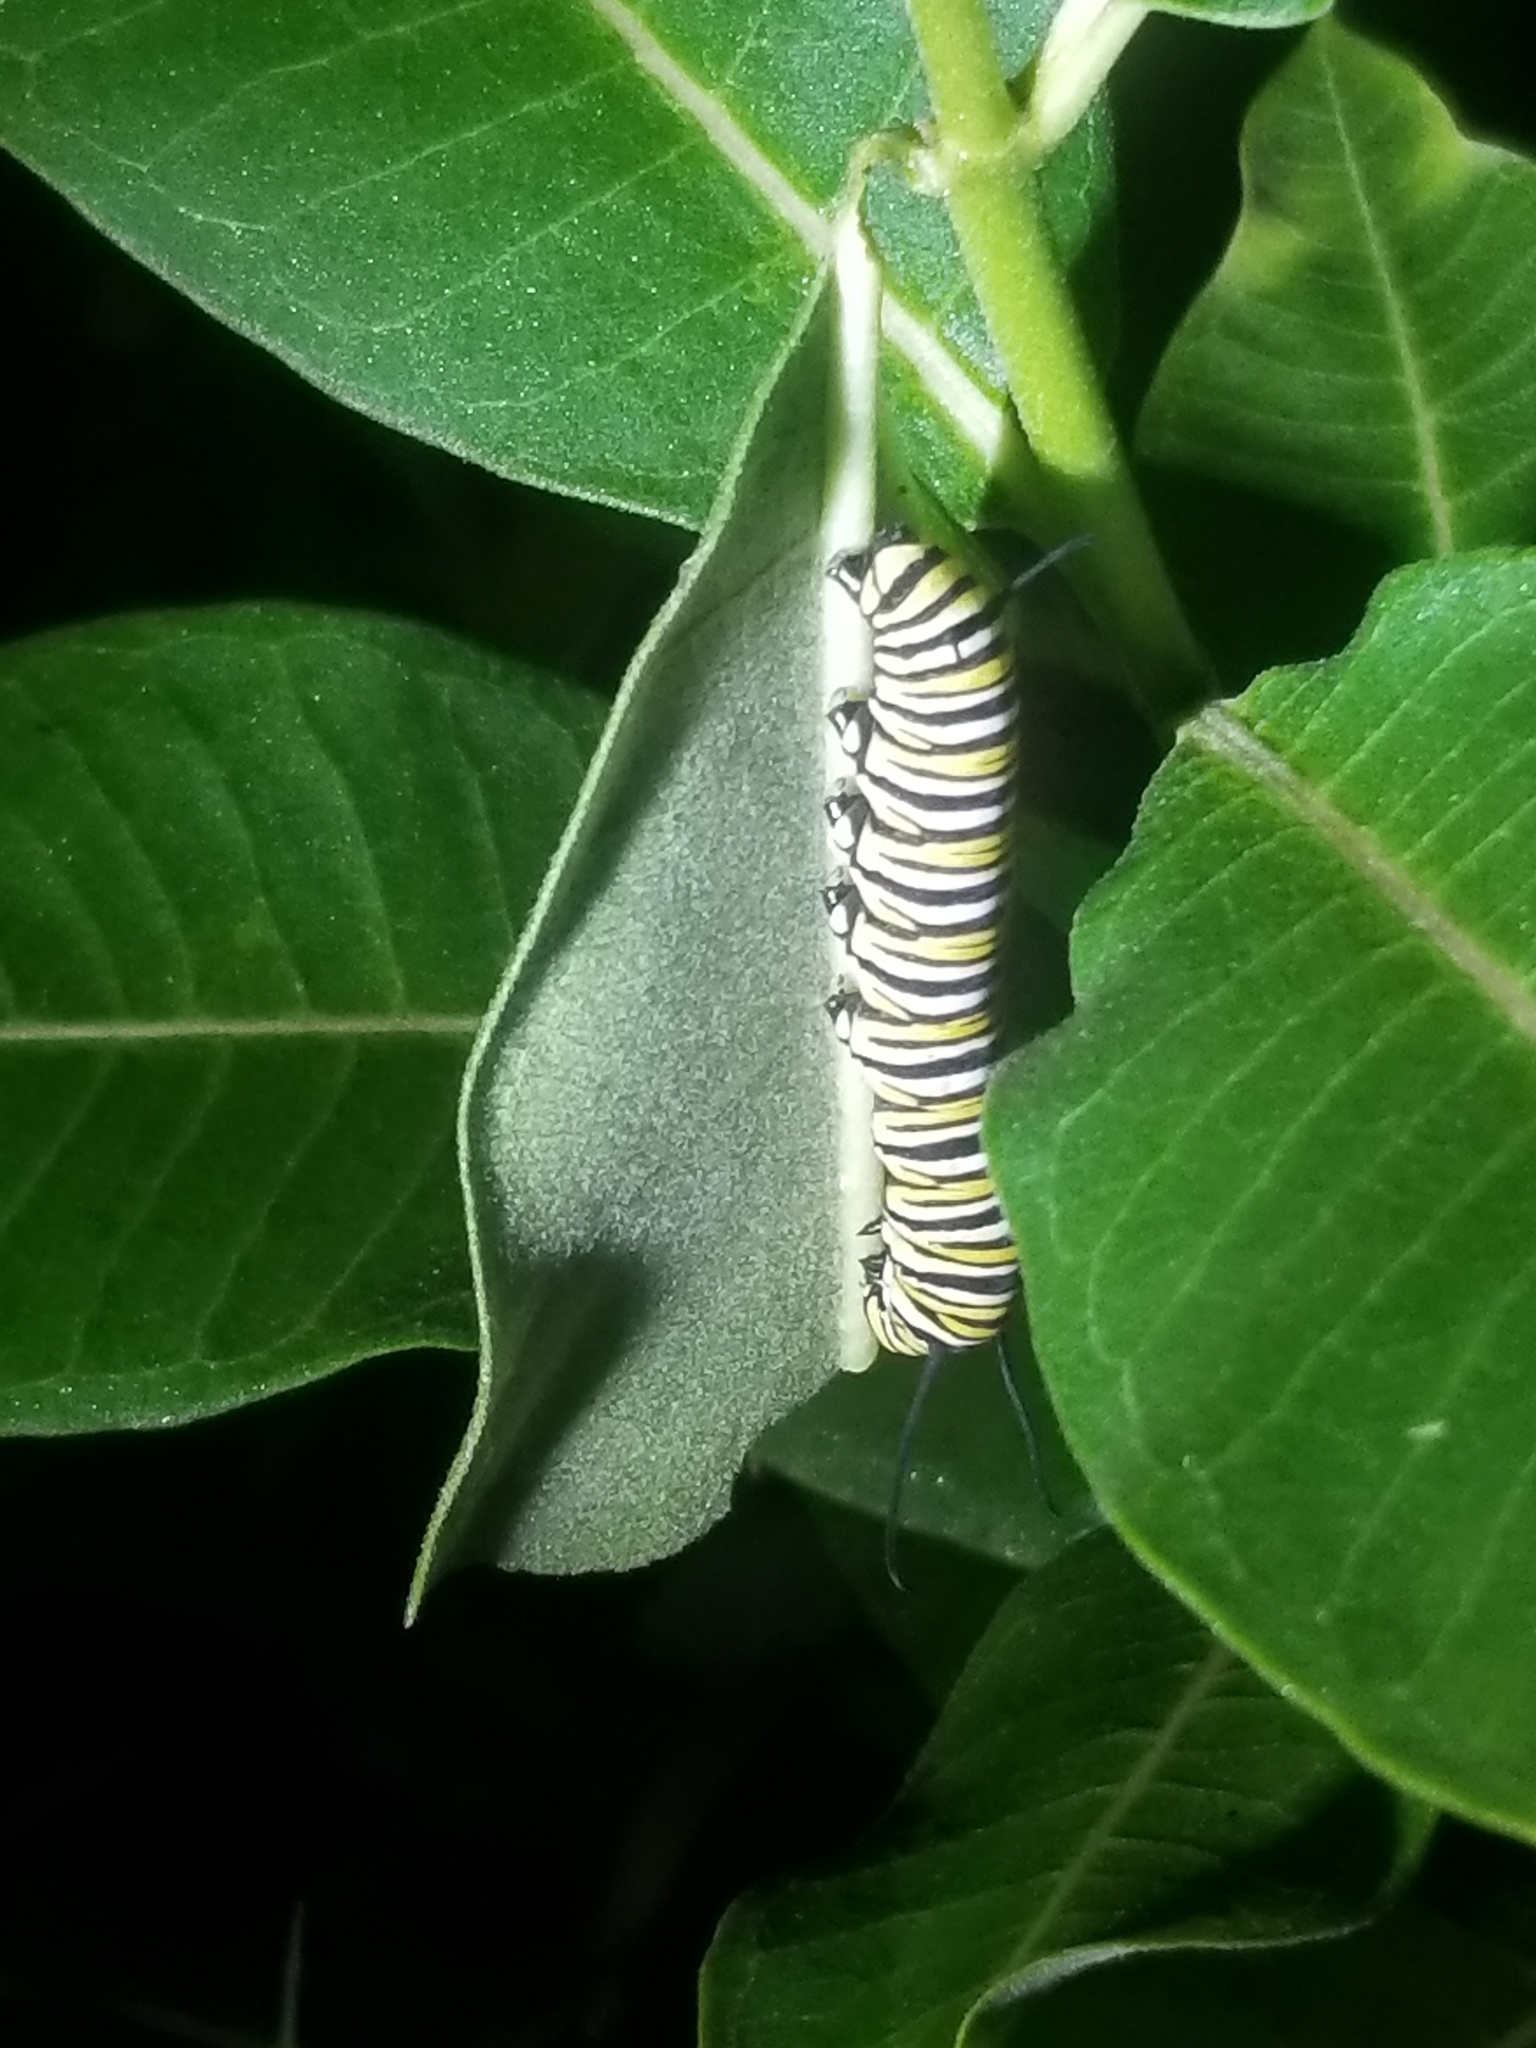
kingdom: Animalia
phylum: Arthropoda
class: Insecta
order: Lepidoptera
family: Nymphalidae
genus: Danaus
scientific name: Danaus plexippus
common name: Monarch
